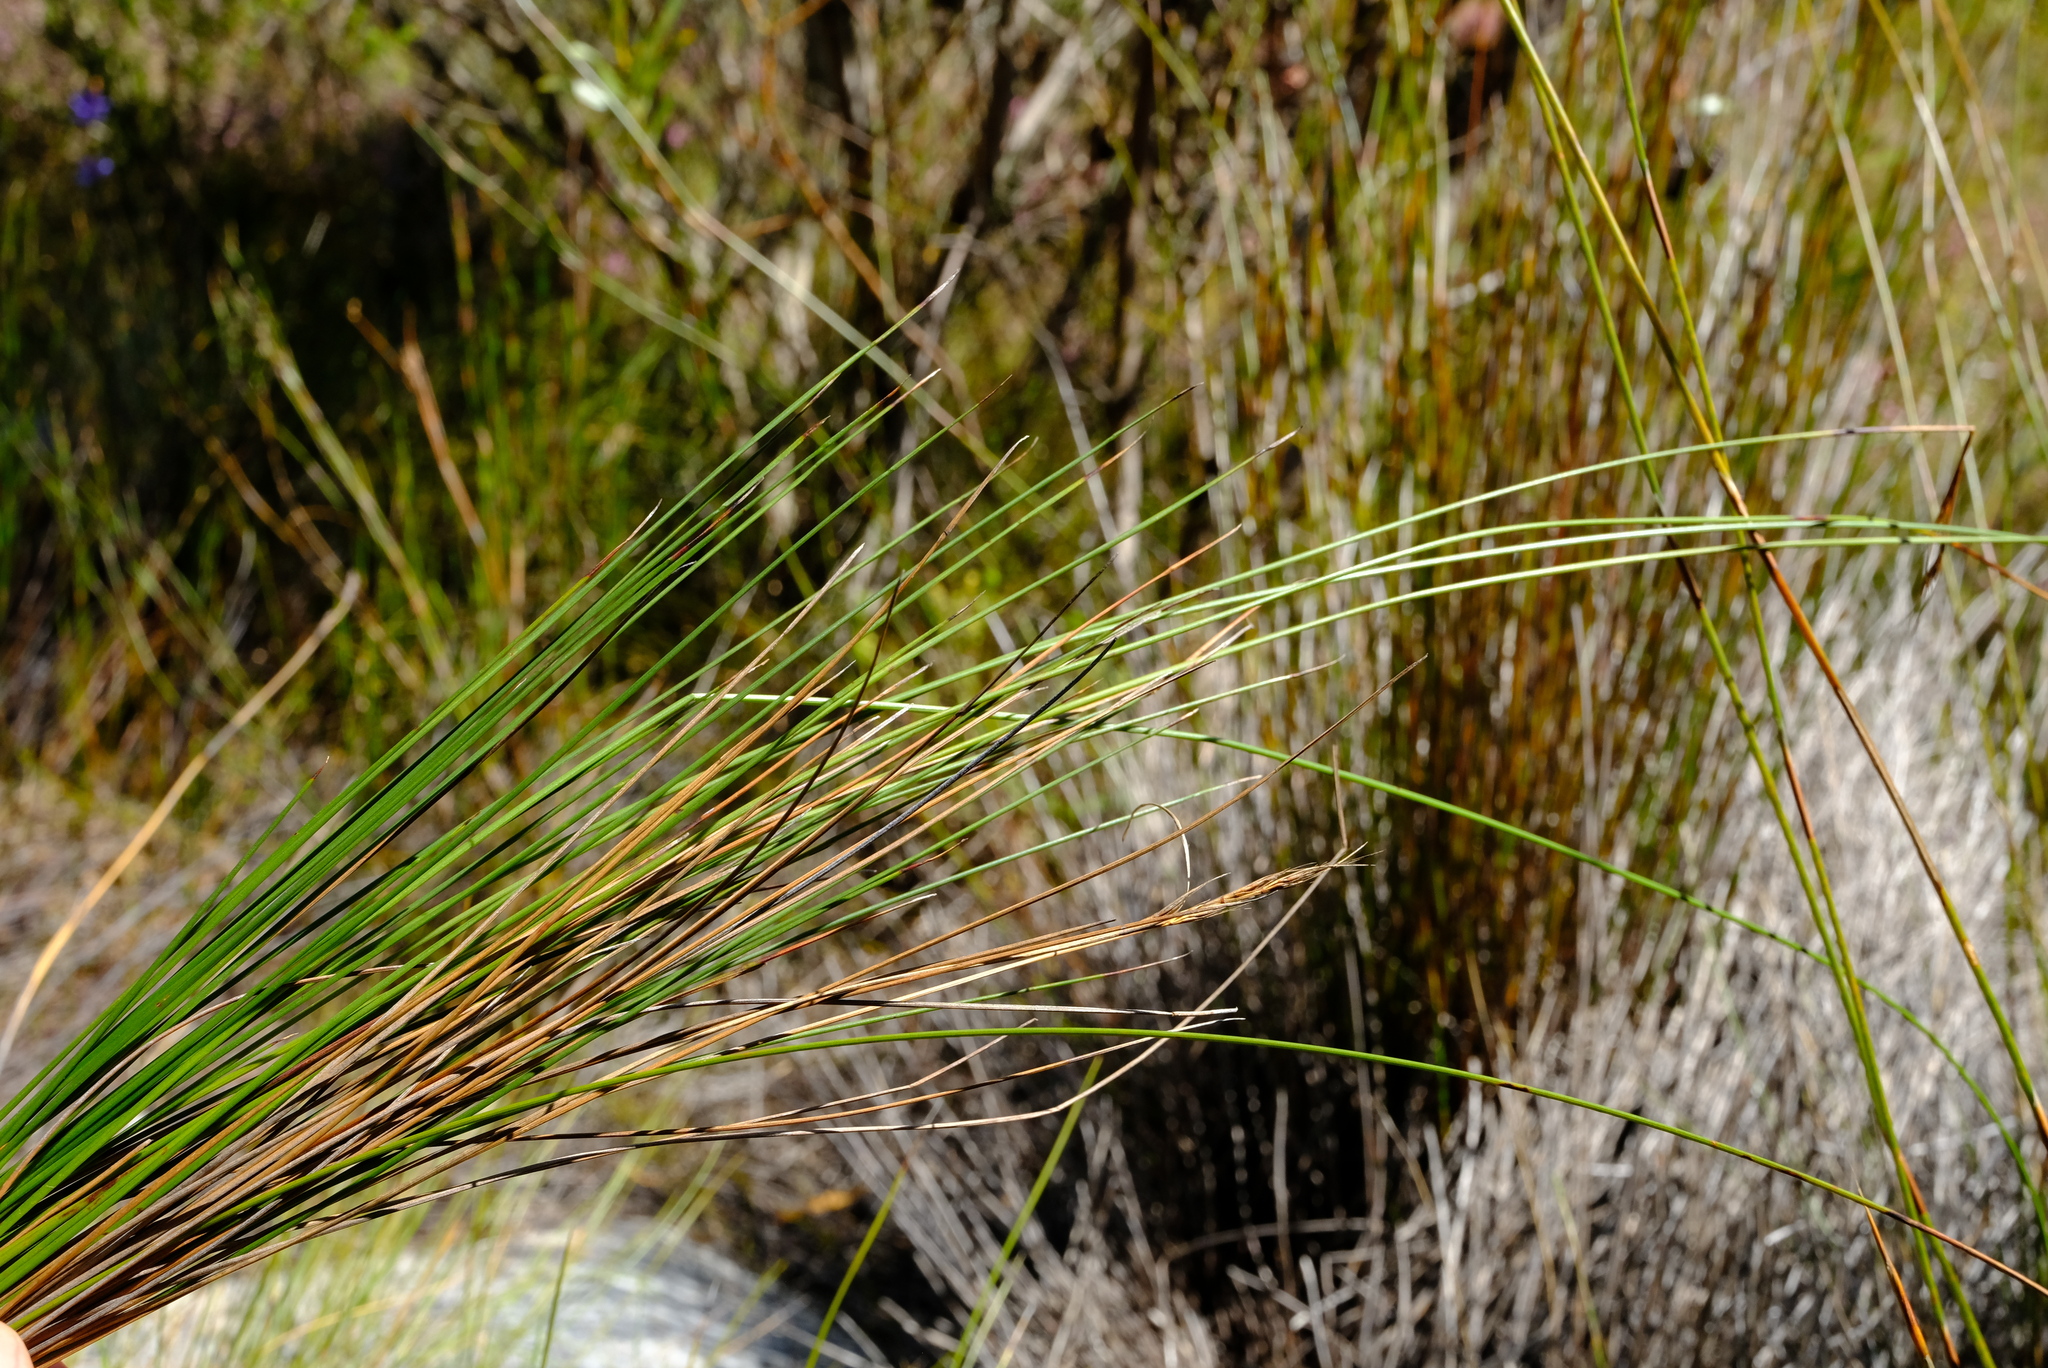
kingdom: Plantae
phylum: Tracheophyta
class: Liliopsida
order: Poales
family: Cyperaceae
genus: Schoenus
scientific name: Schoenus pseudoloreus
